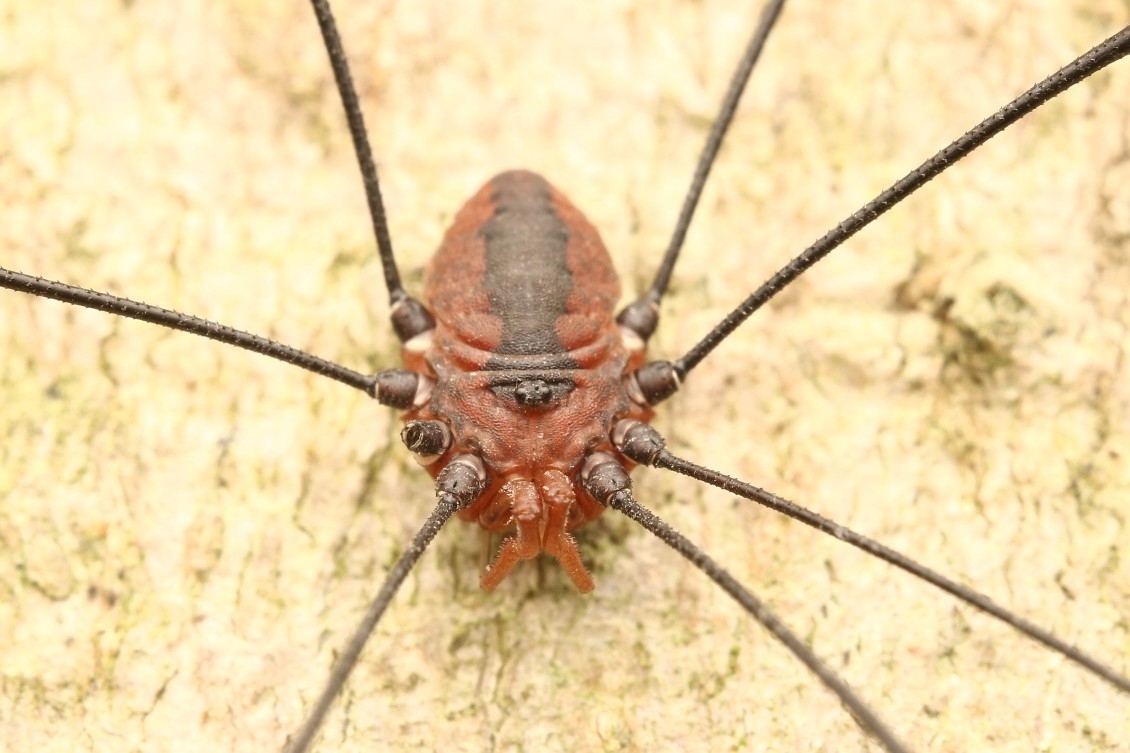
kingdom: Animalia
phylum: Arthropoda
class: Arachnida
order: Opiliones
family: Sclerosomatidae
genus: Leiobunum
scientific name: Leiobunum vittatum
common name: Eastern harvestman
